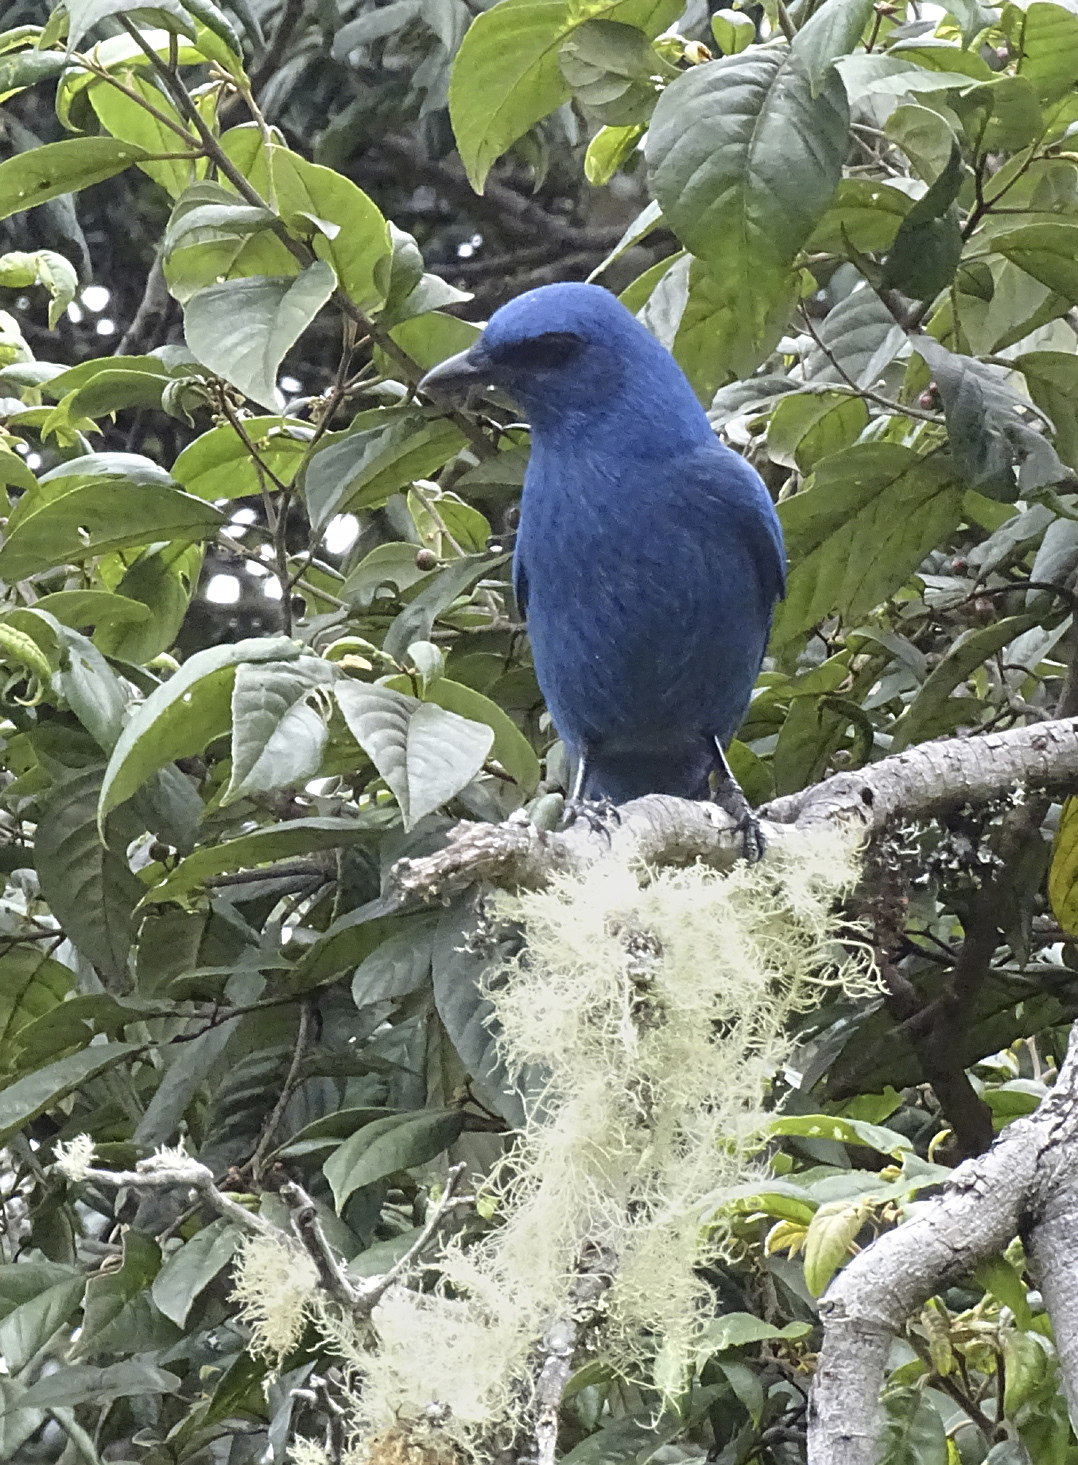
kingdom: Animalia
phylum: Chordata
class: Aves
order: Passeriformes
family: Corvidae
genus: Aphelocoma
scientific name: Aphelocoma unicolor
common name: Unicolored jay
